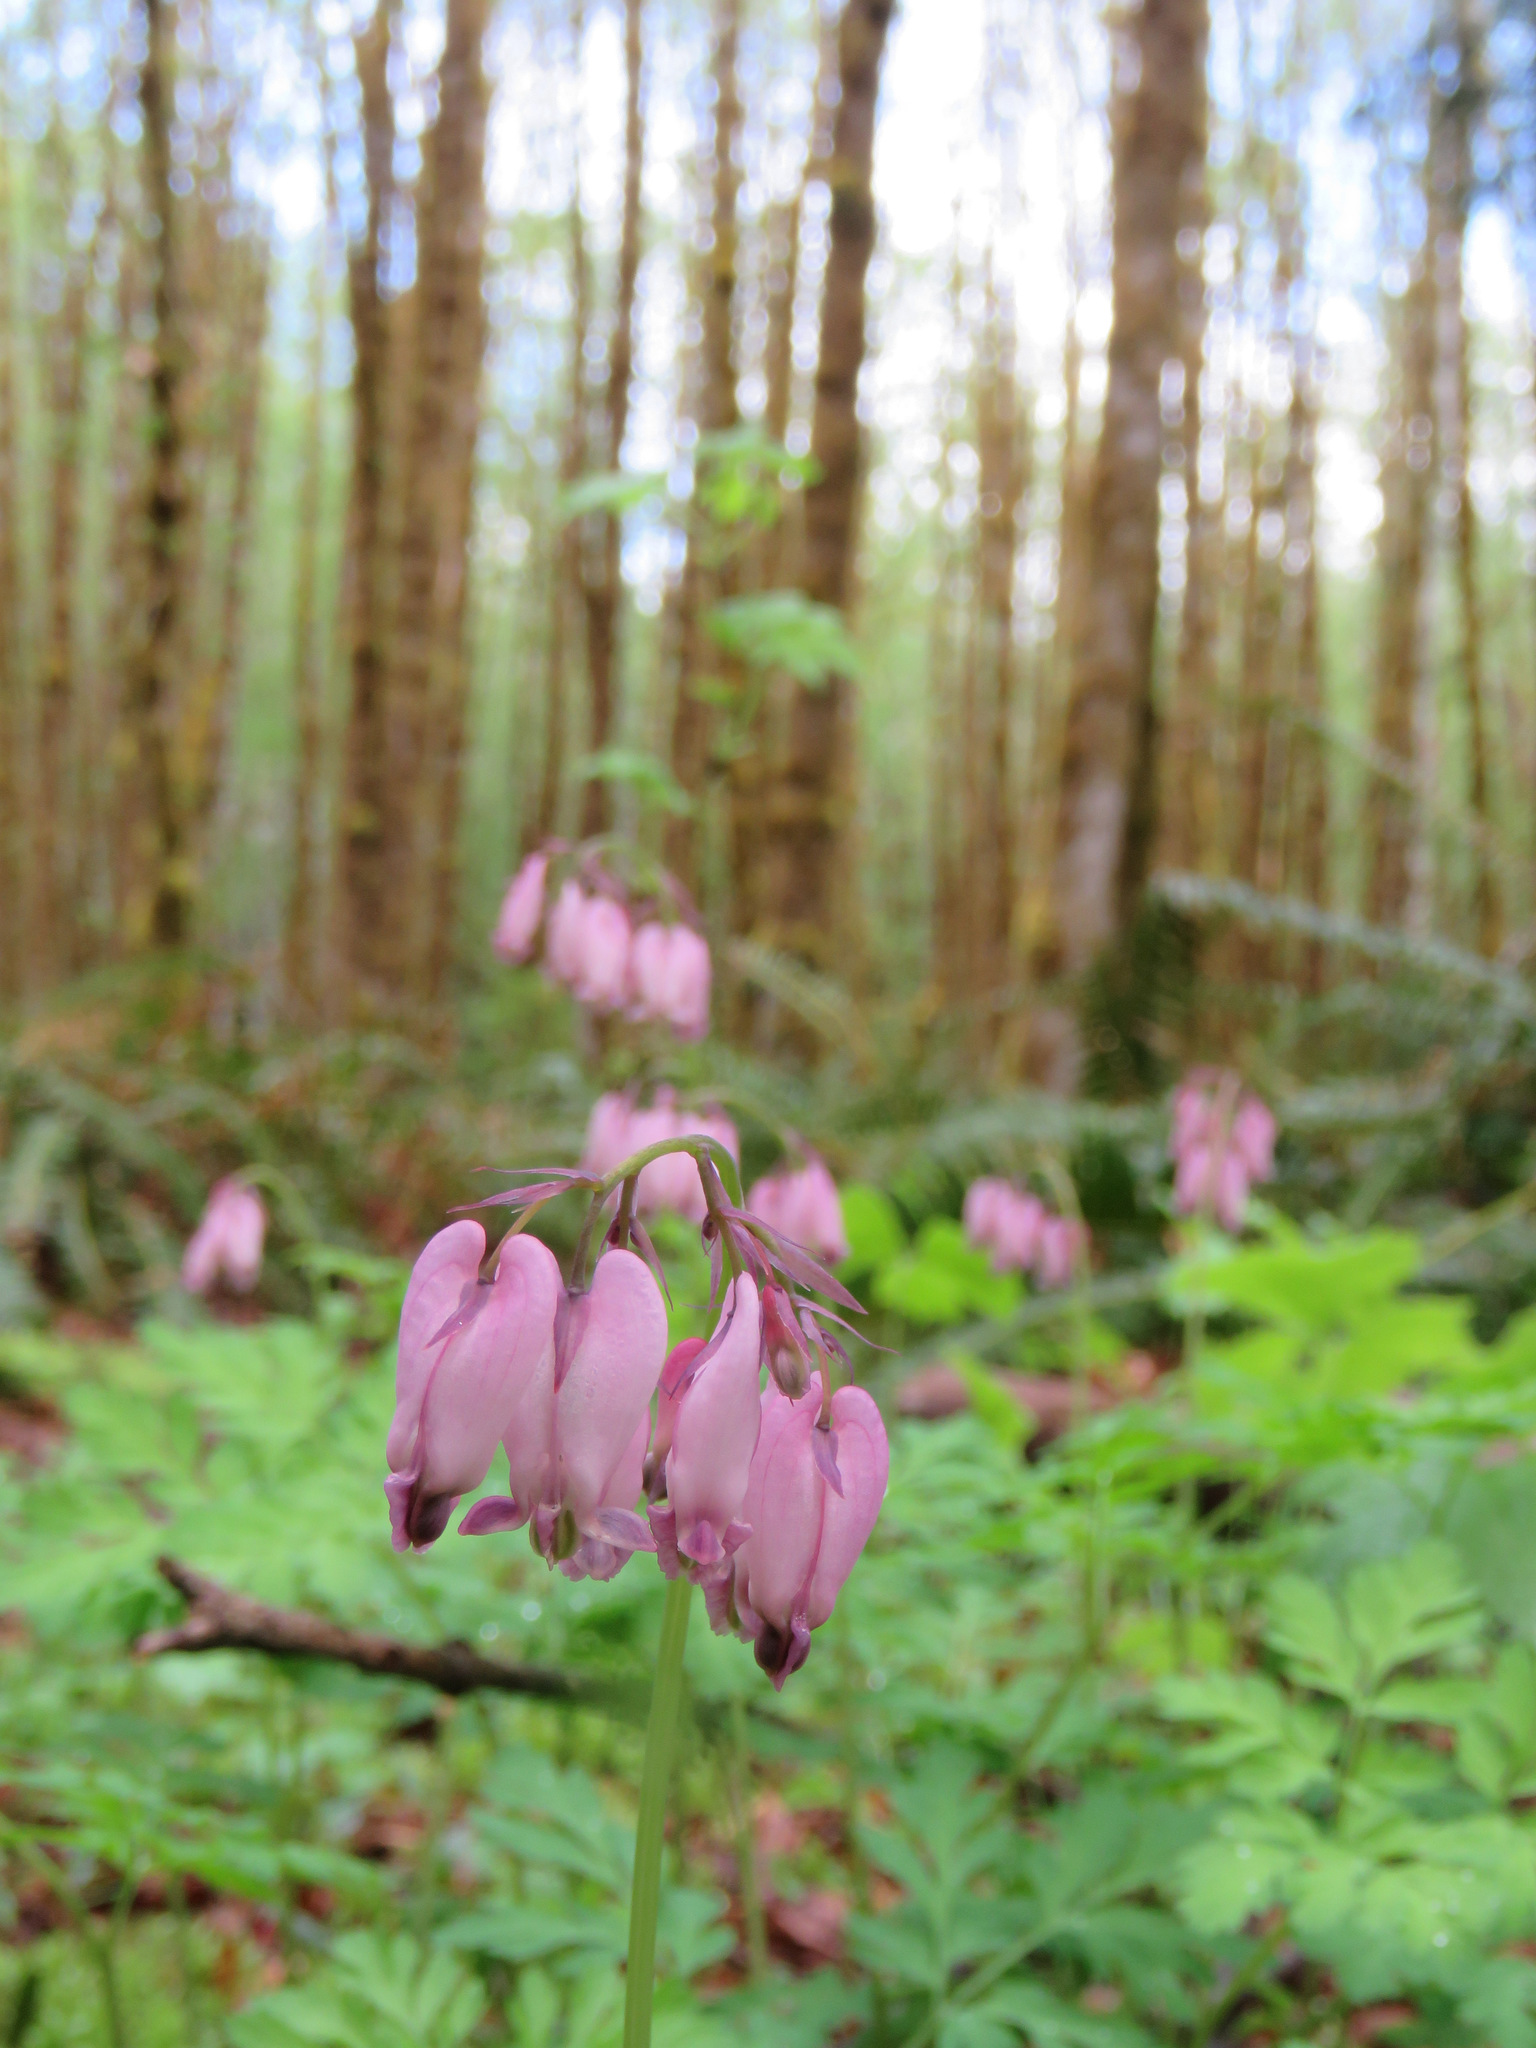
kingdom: Plantae
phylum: Tracheophyta
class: Magnoliopsida
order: Ranunculales
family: Papaveraceae
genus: Dicentra
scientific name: Dicentra formosa
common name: Bleeding-heart
